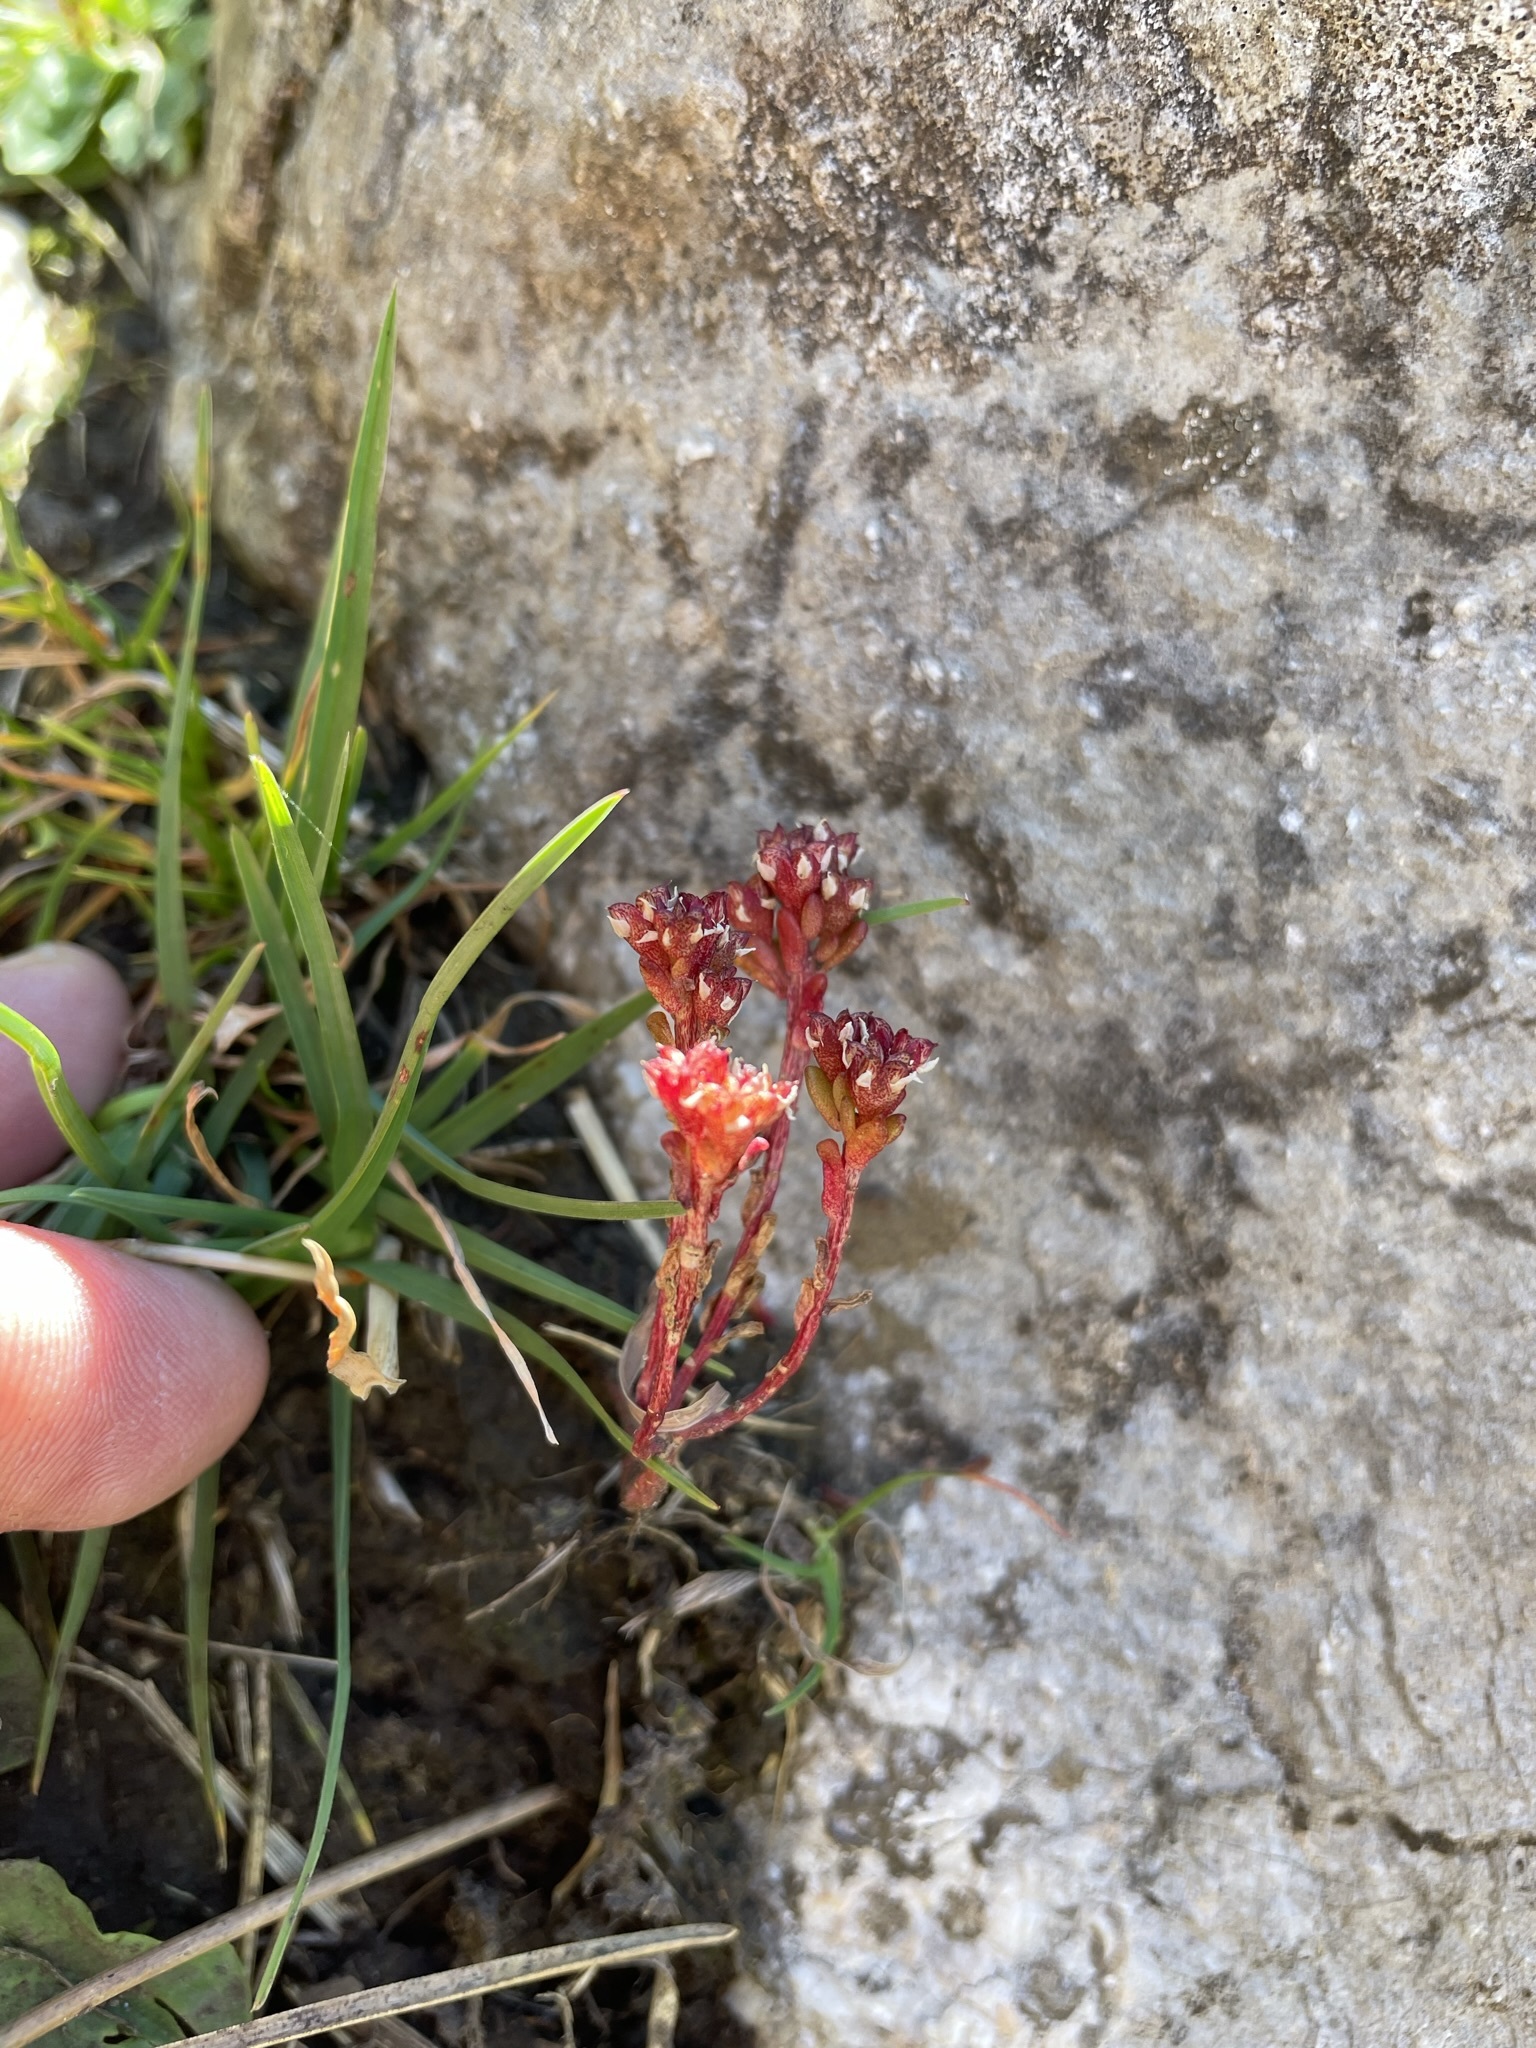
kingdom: Plantae
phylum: Tracheophyta
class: Magnoliopsida
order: Saxifragales
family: Crassulaceae
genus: Sedum
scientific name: Sedum atratum
